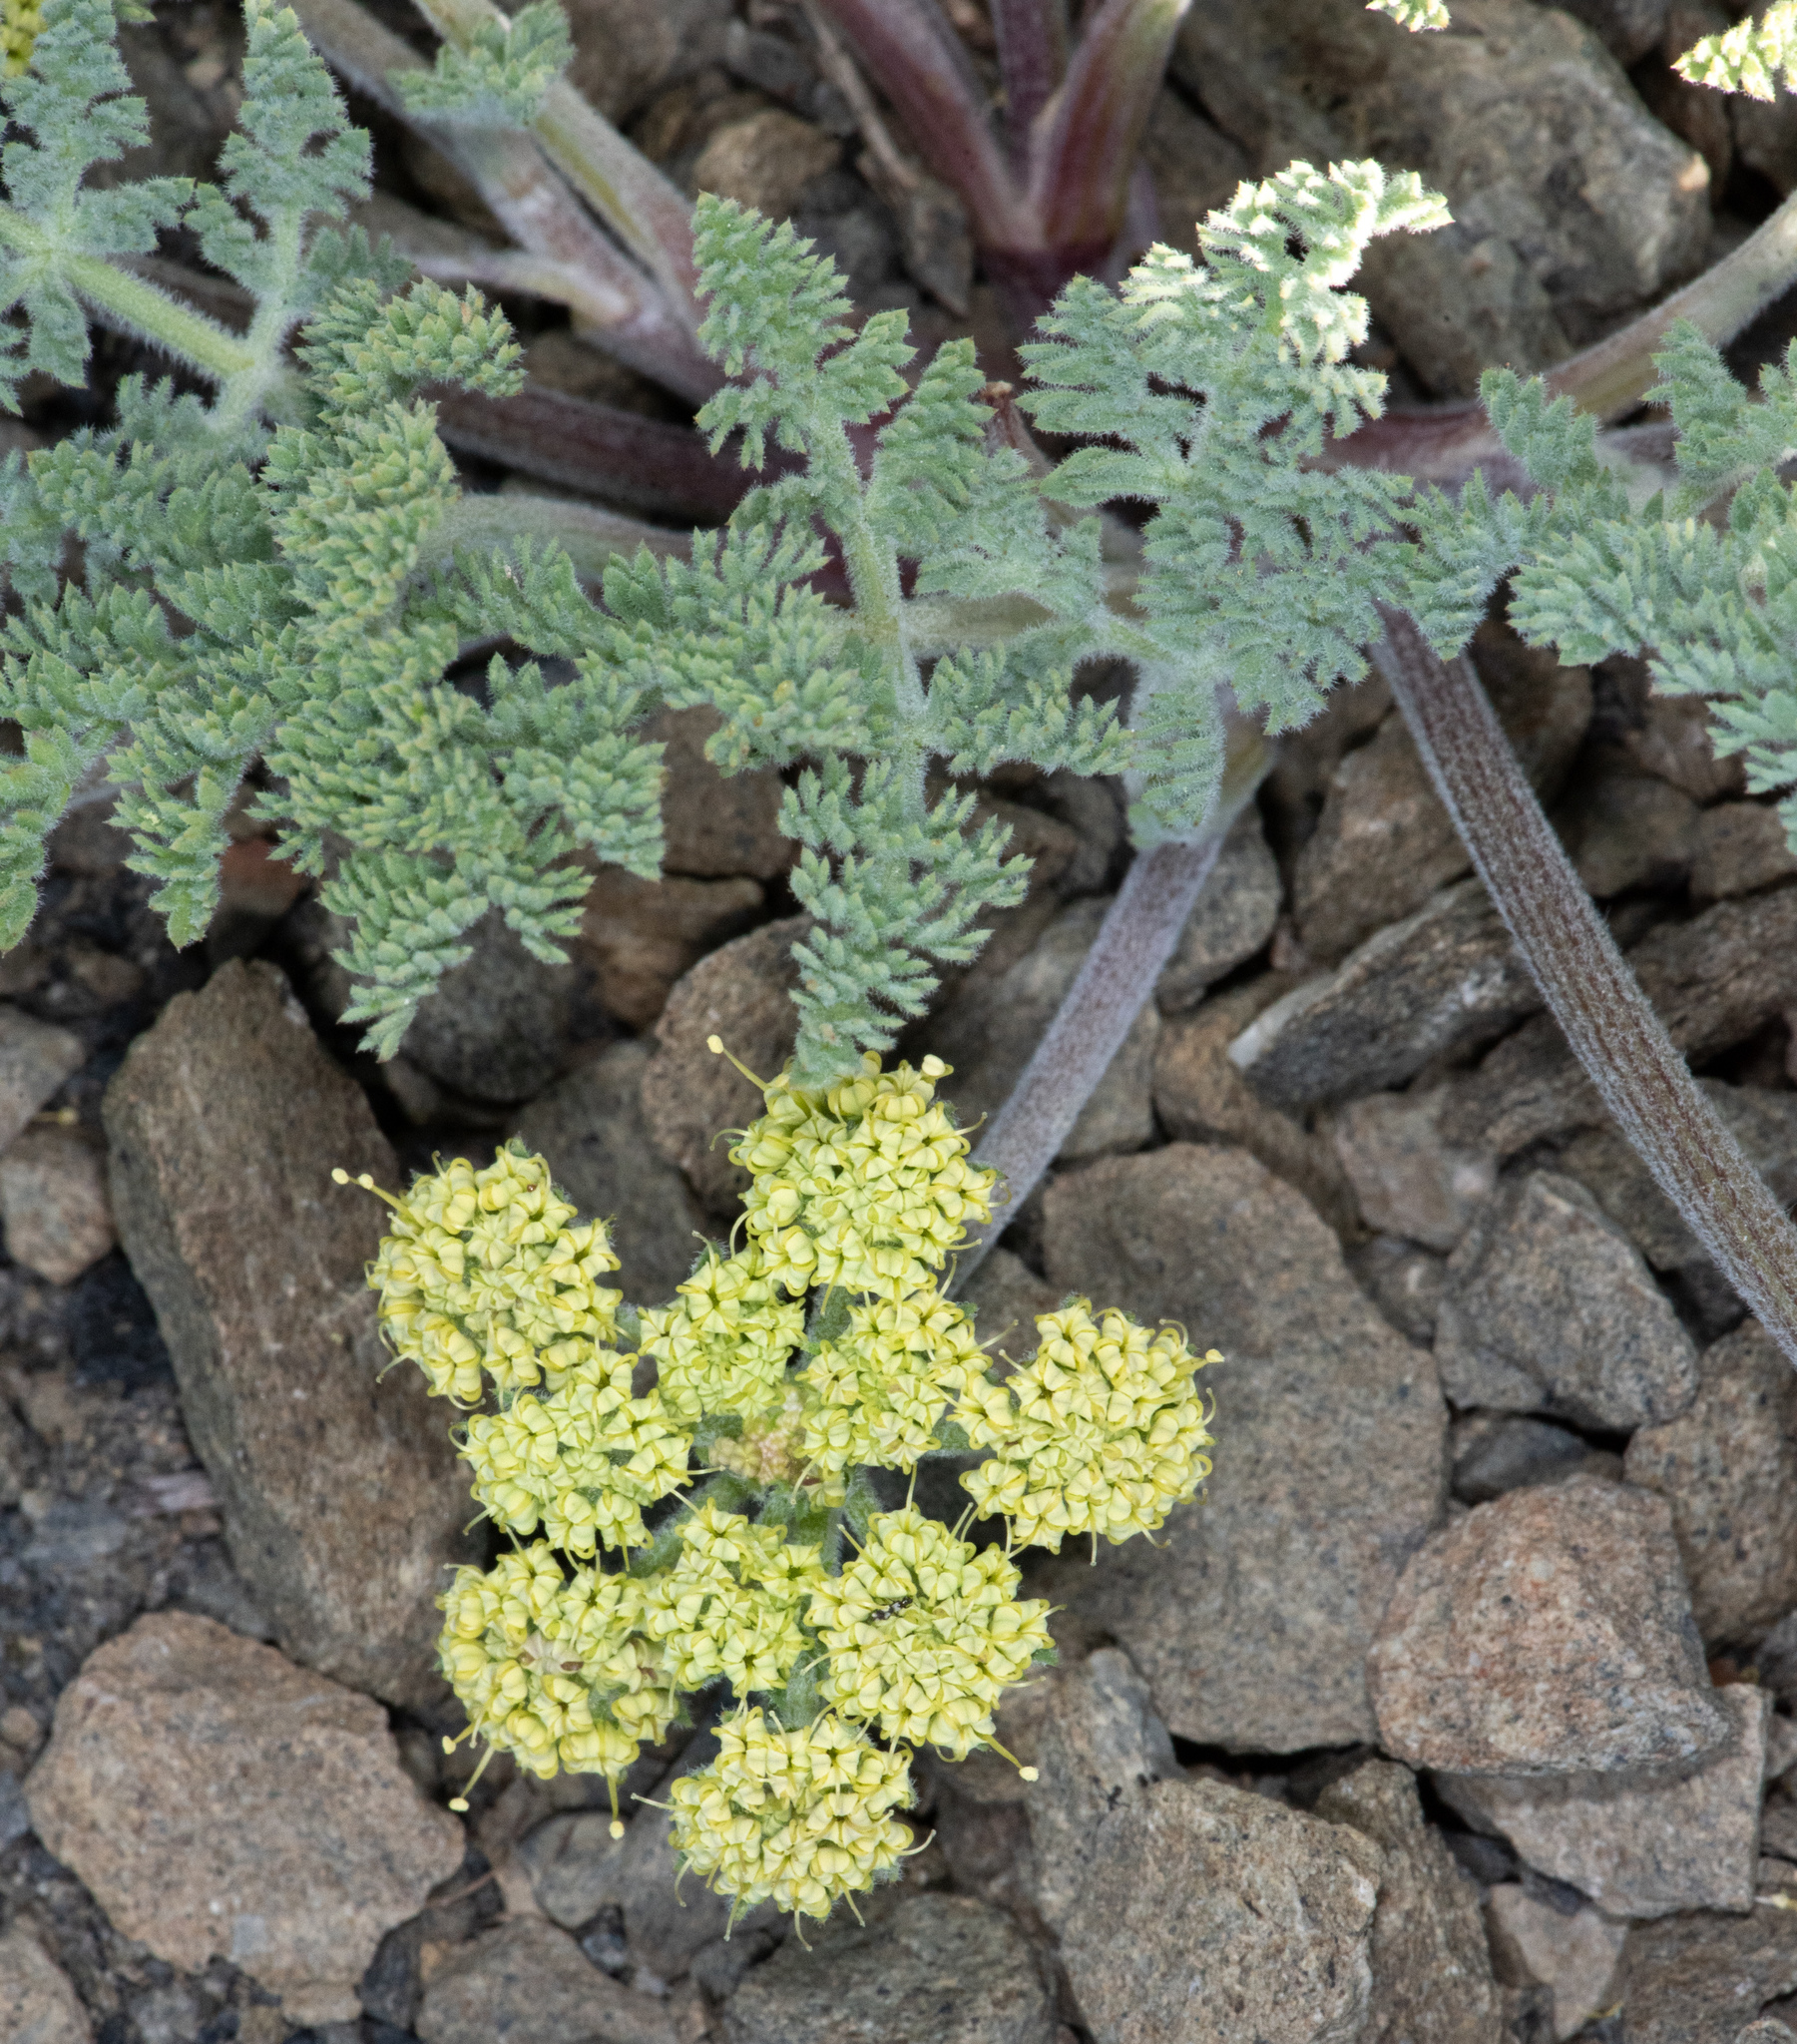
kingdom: Plantae
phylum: Tracheophyta
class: Magnoliopsida
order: Apiales
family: Apiaceae
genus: Lomatium
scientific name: Lomatium dasycarpum
